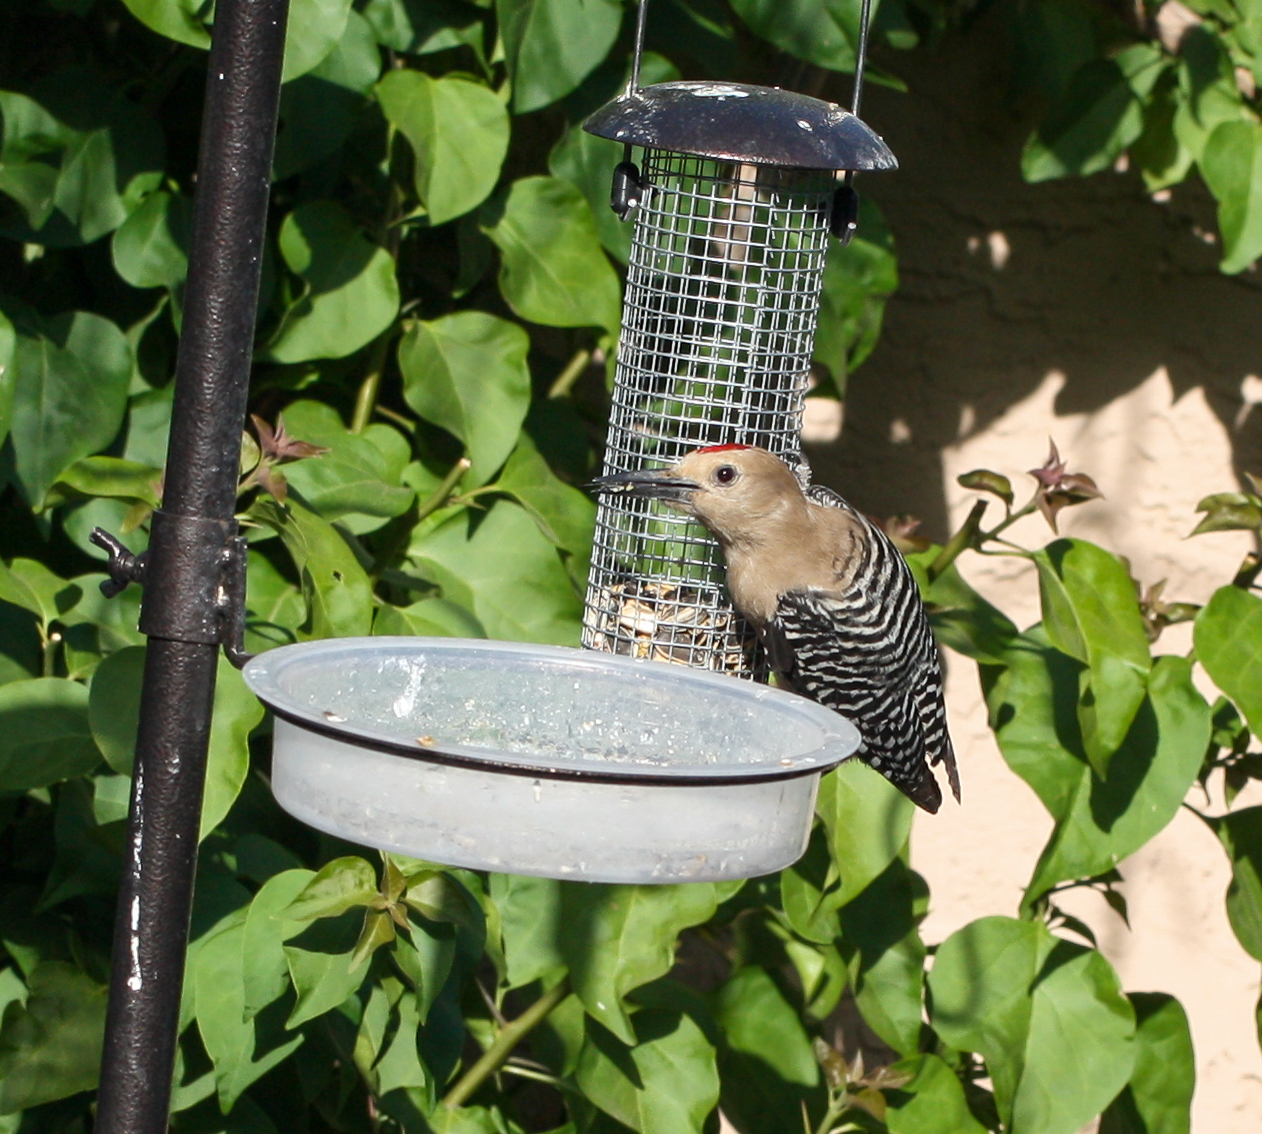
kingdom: Animalia
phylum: Chordata
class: Aves
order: Piciformes
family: Picidae
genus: Melanerpes
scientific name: Melanerpes uropygialis
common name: Gila woodpecker
